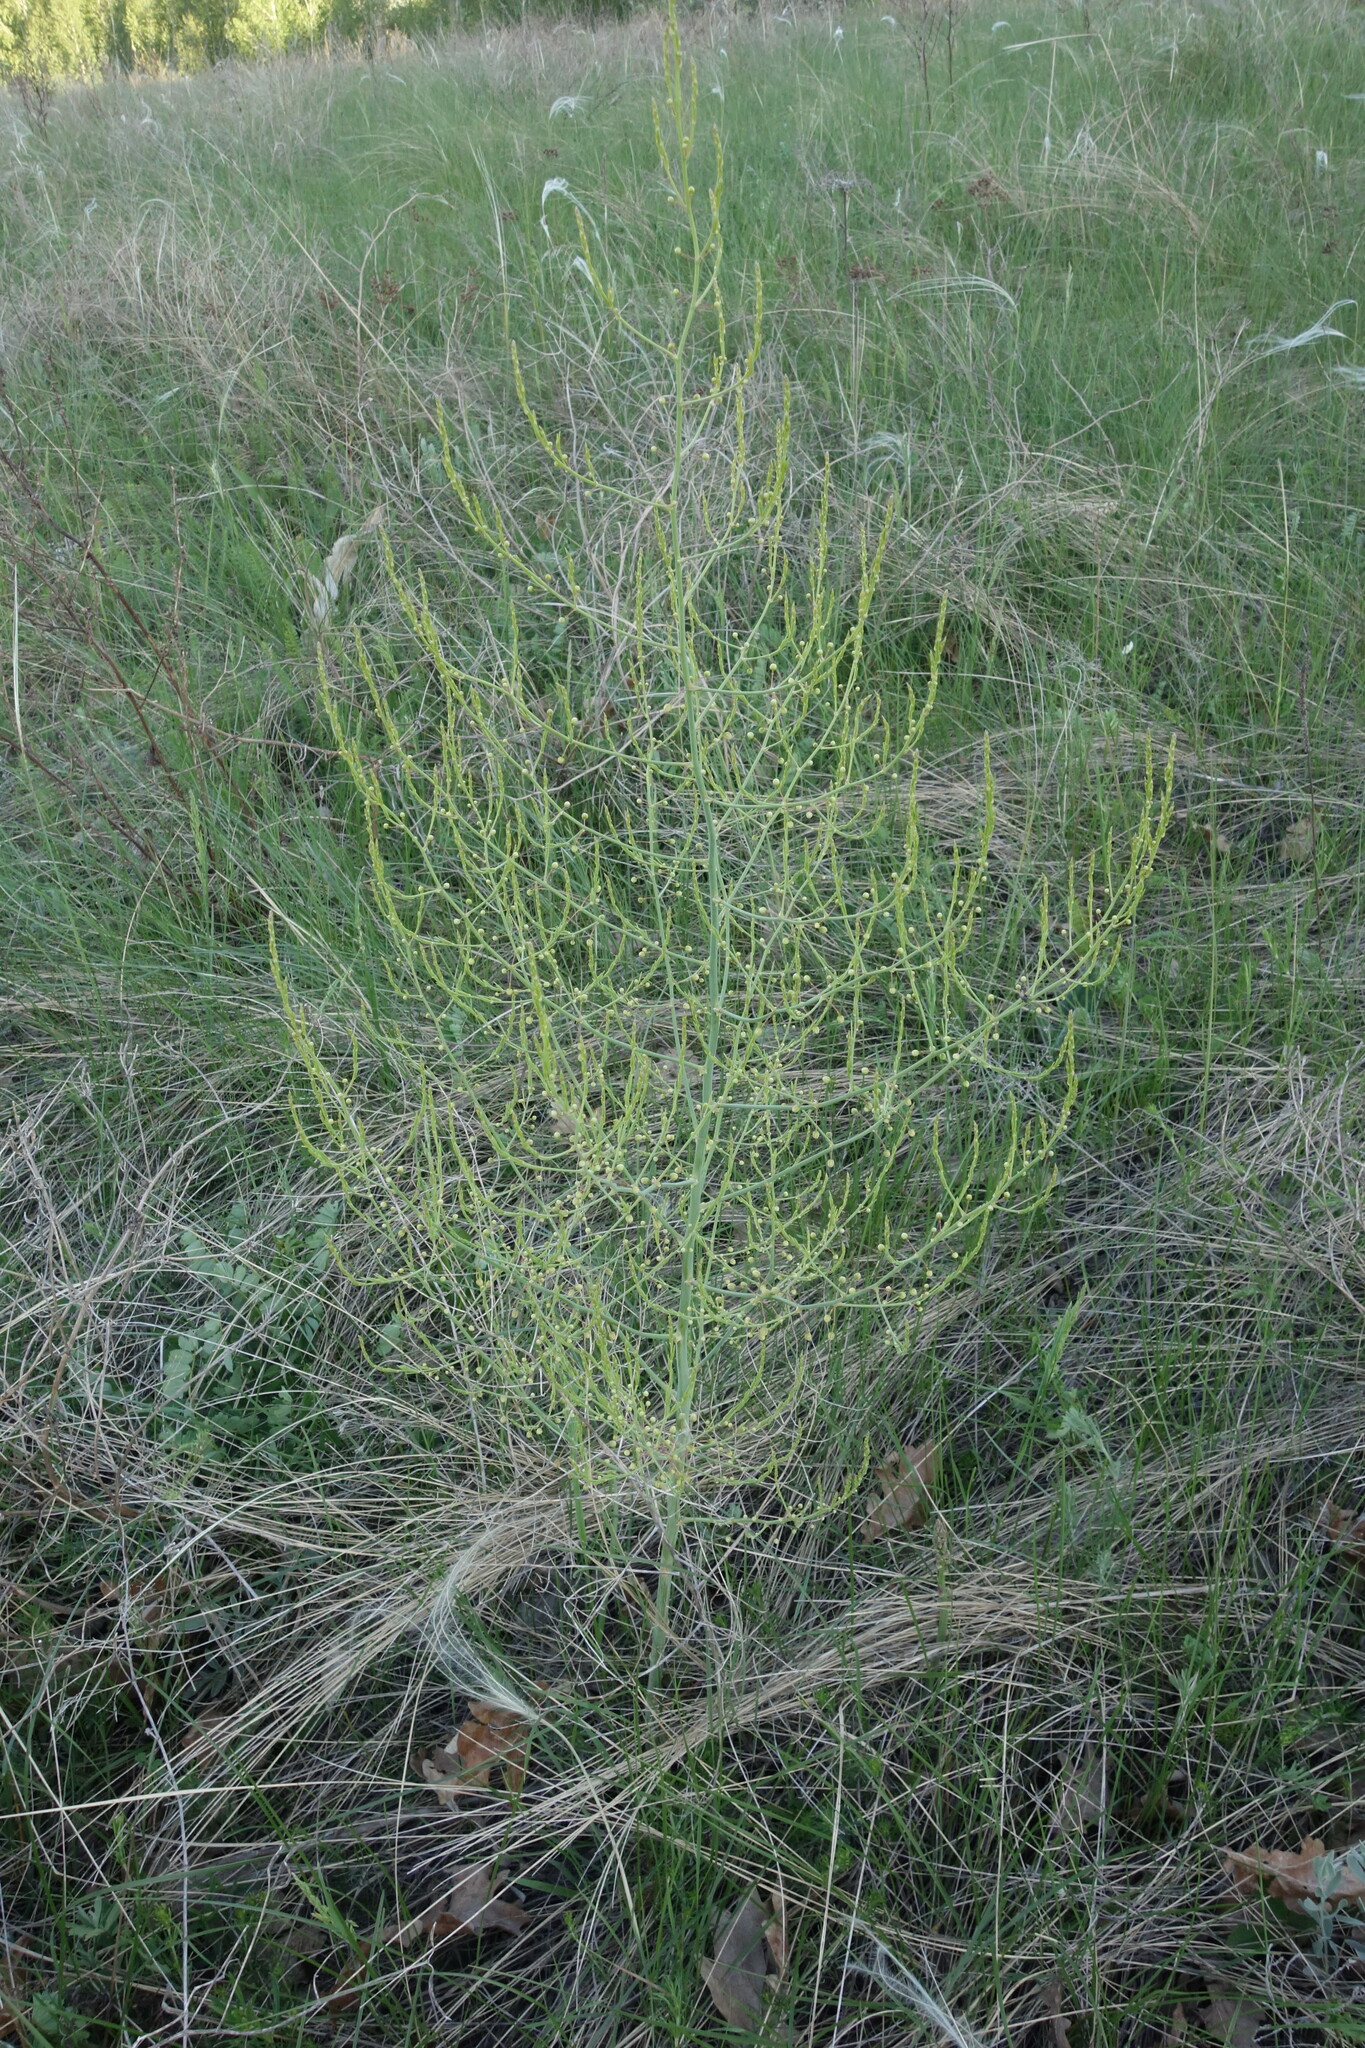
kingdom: Plantae
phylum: Tracheophyta
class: Liliopsida
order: Asparagales
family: Asparagaceae
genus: Asparagus
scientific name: Asparagus officinalis
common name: Garden asparagus
